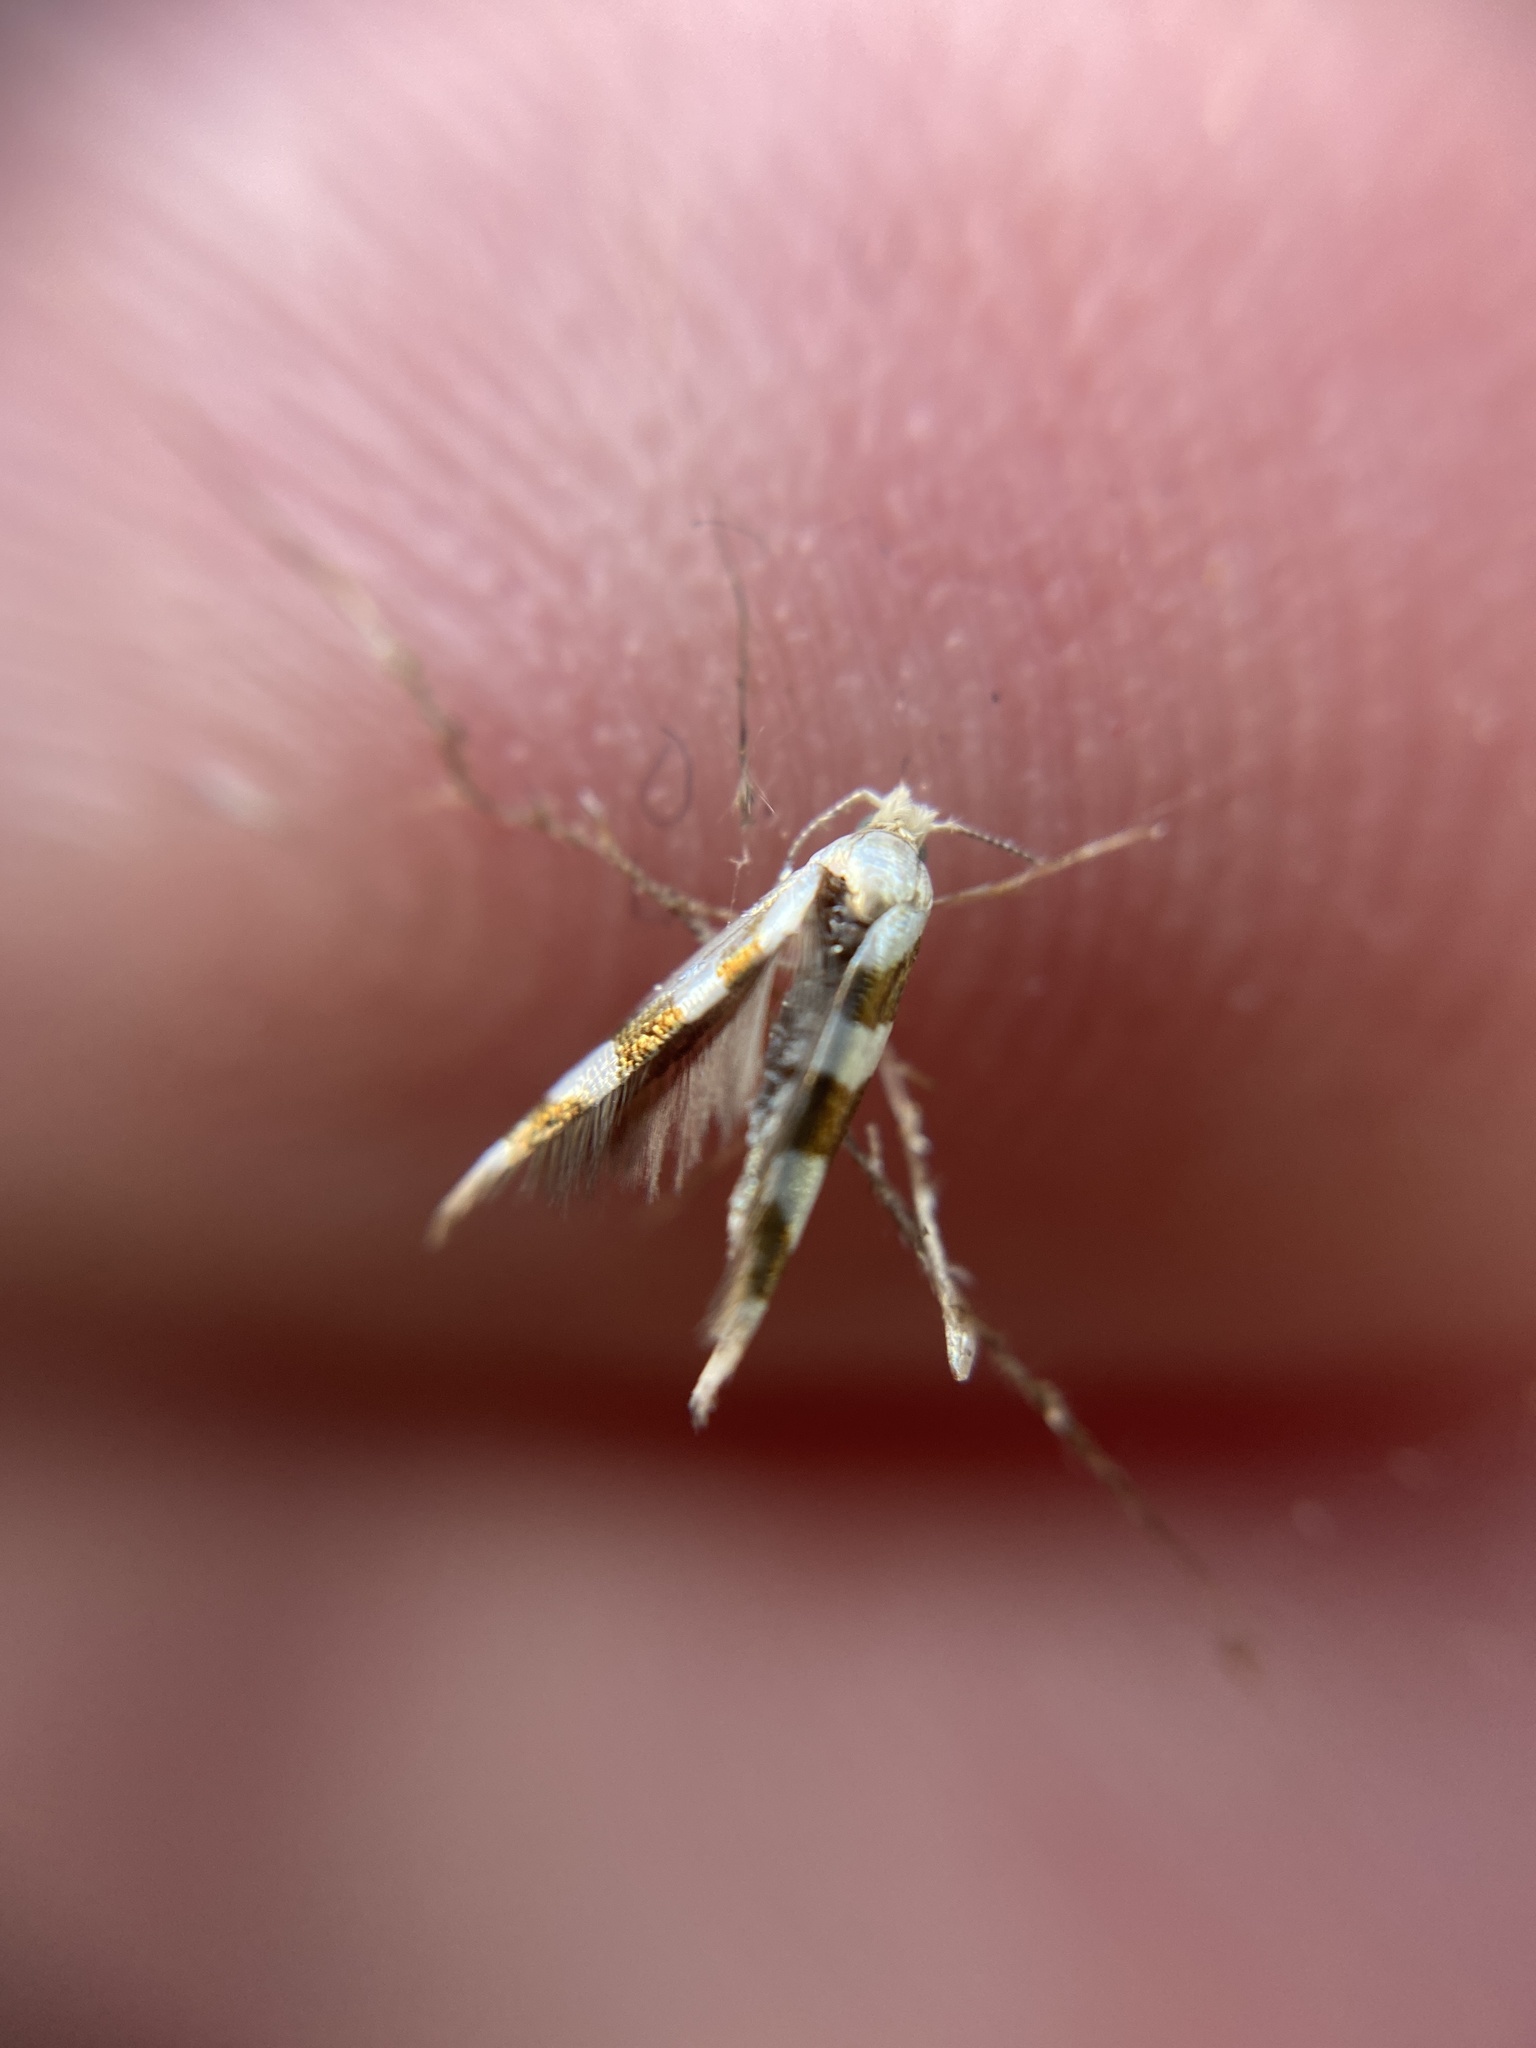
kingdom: Animalia
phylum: Arthropoda
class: Insecta
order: Lepidoptera
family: Argyresthiidae
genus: Argyresthia
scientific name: Argyresthia goedartella
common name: Golden argent
